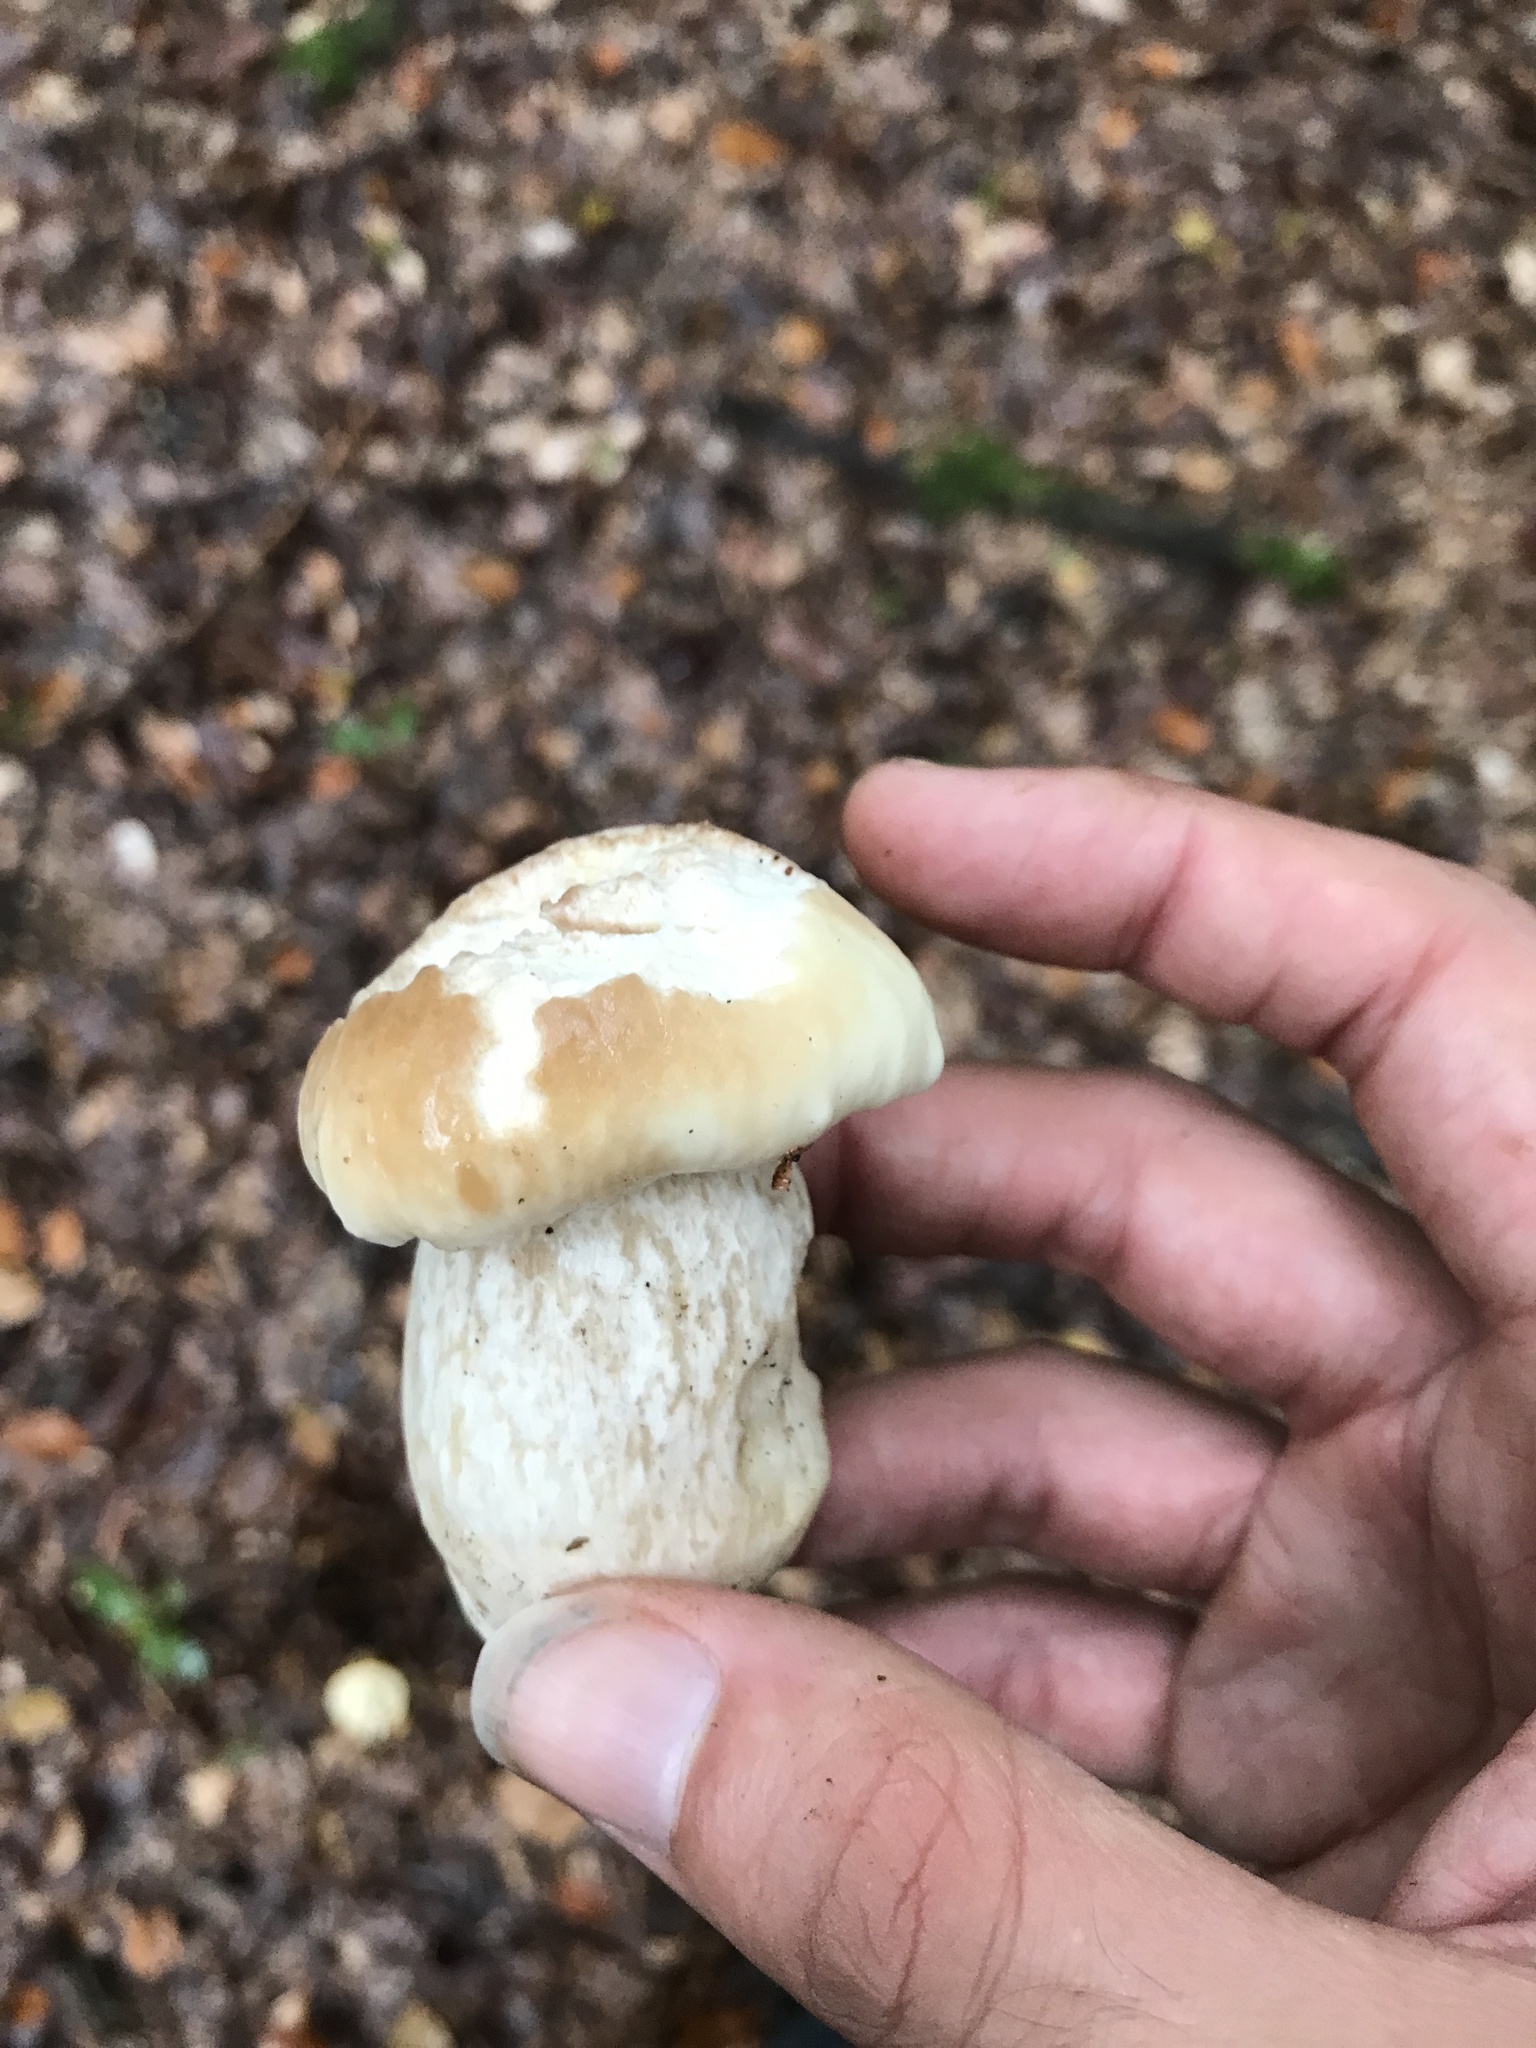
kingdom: Fungi
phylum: Basidiomycota
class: Agaricomycetes
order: Boletales
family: Boletaceae
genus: Boletus
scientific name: Boletus edulis
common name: Cep
